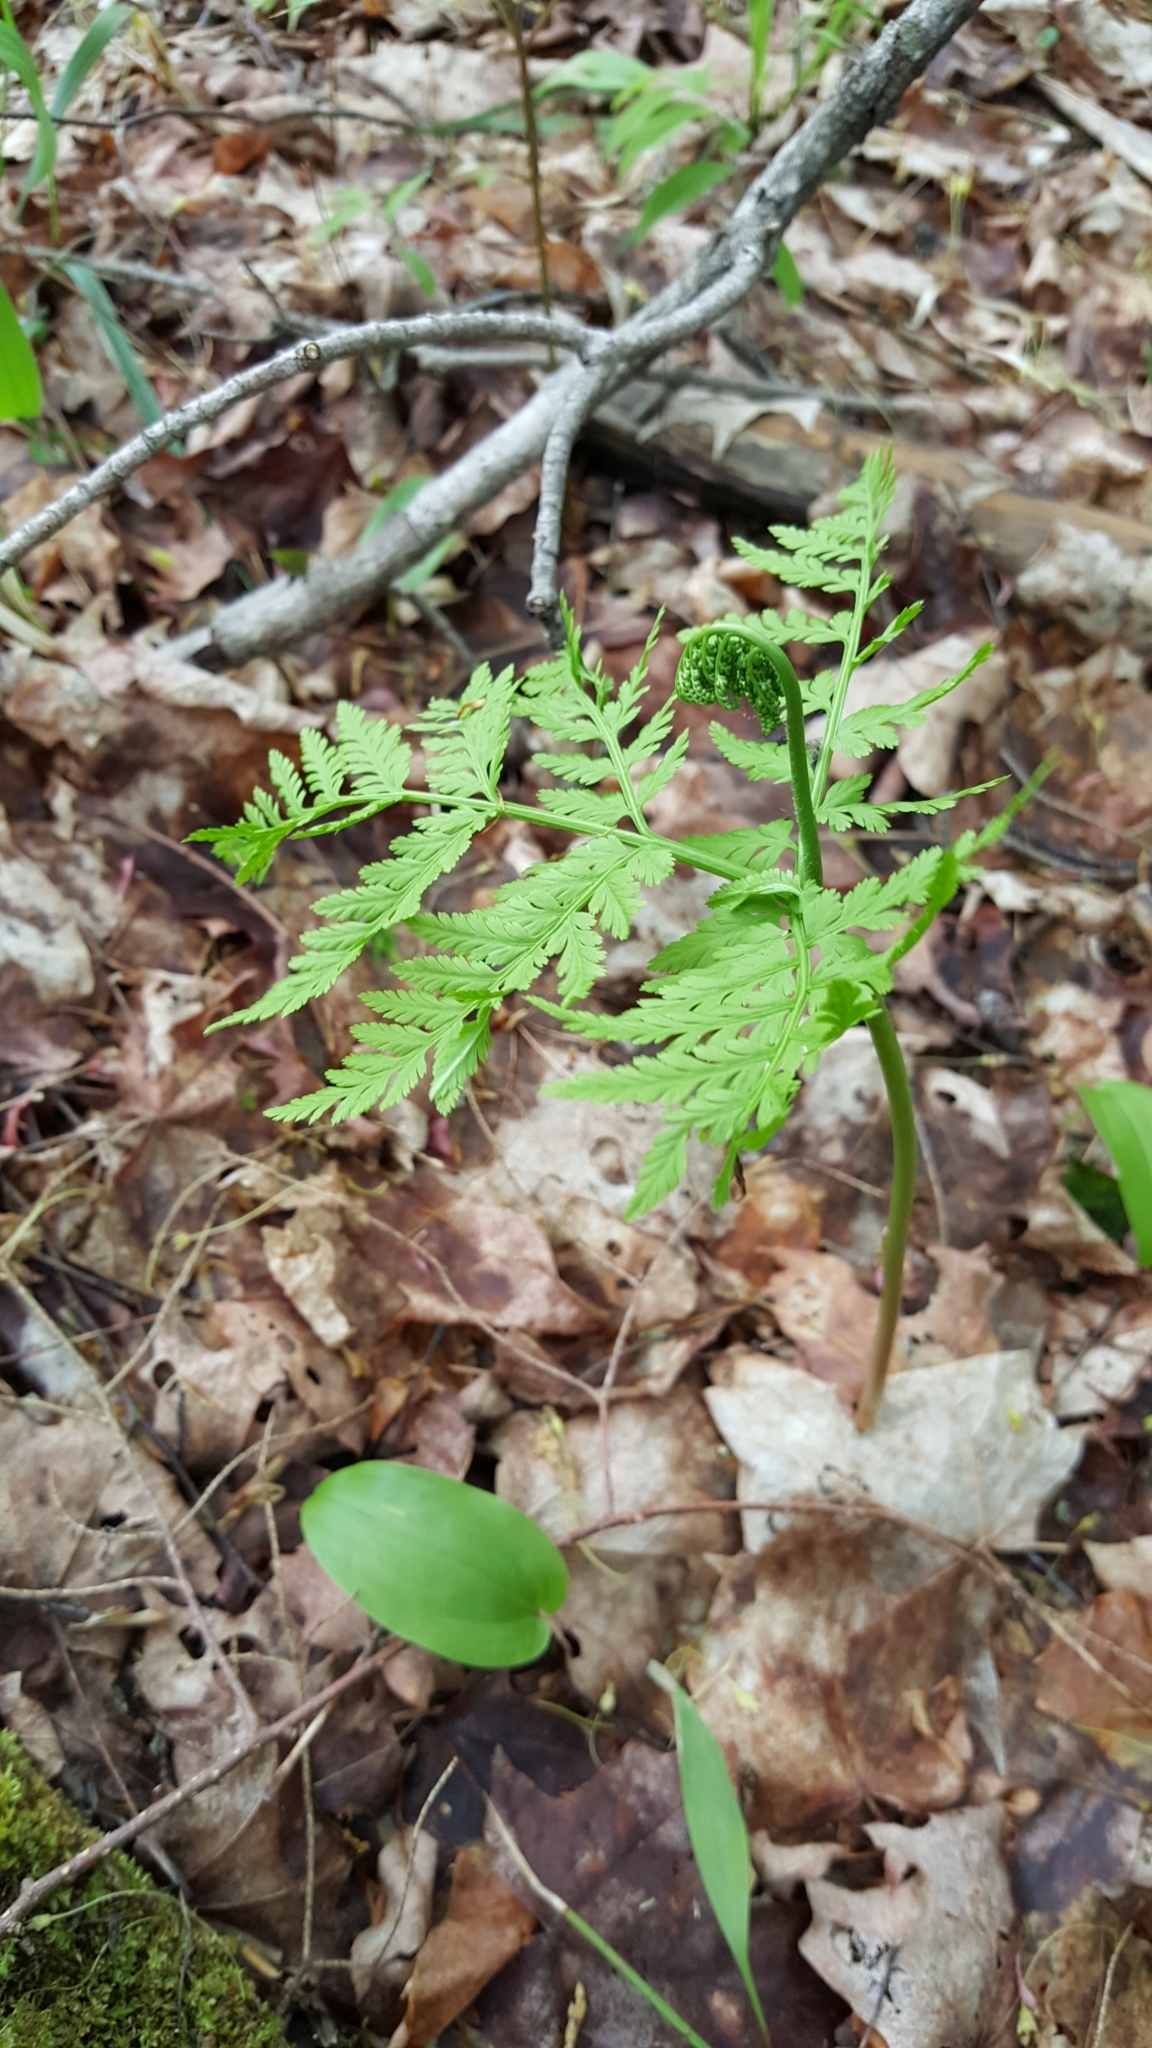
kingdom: Plantae
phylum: Tracheophyta
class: Polypodiopsida
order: Ophioglossales
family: Ophioglossaceae
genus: Botrypus
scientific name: Botrypus virginianus
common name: Common grapefern
